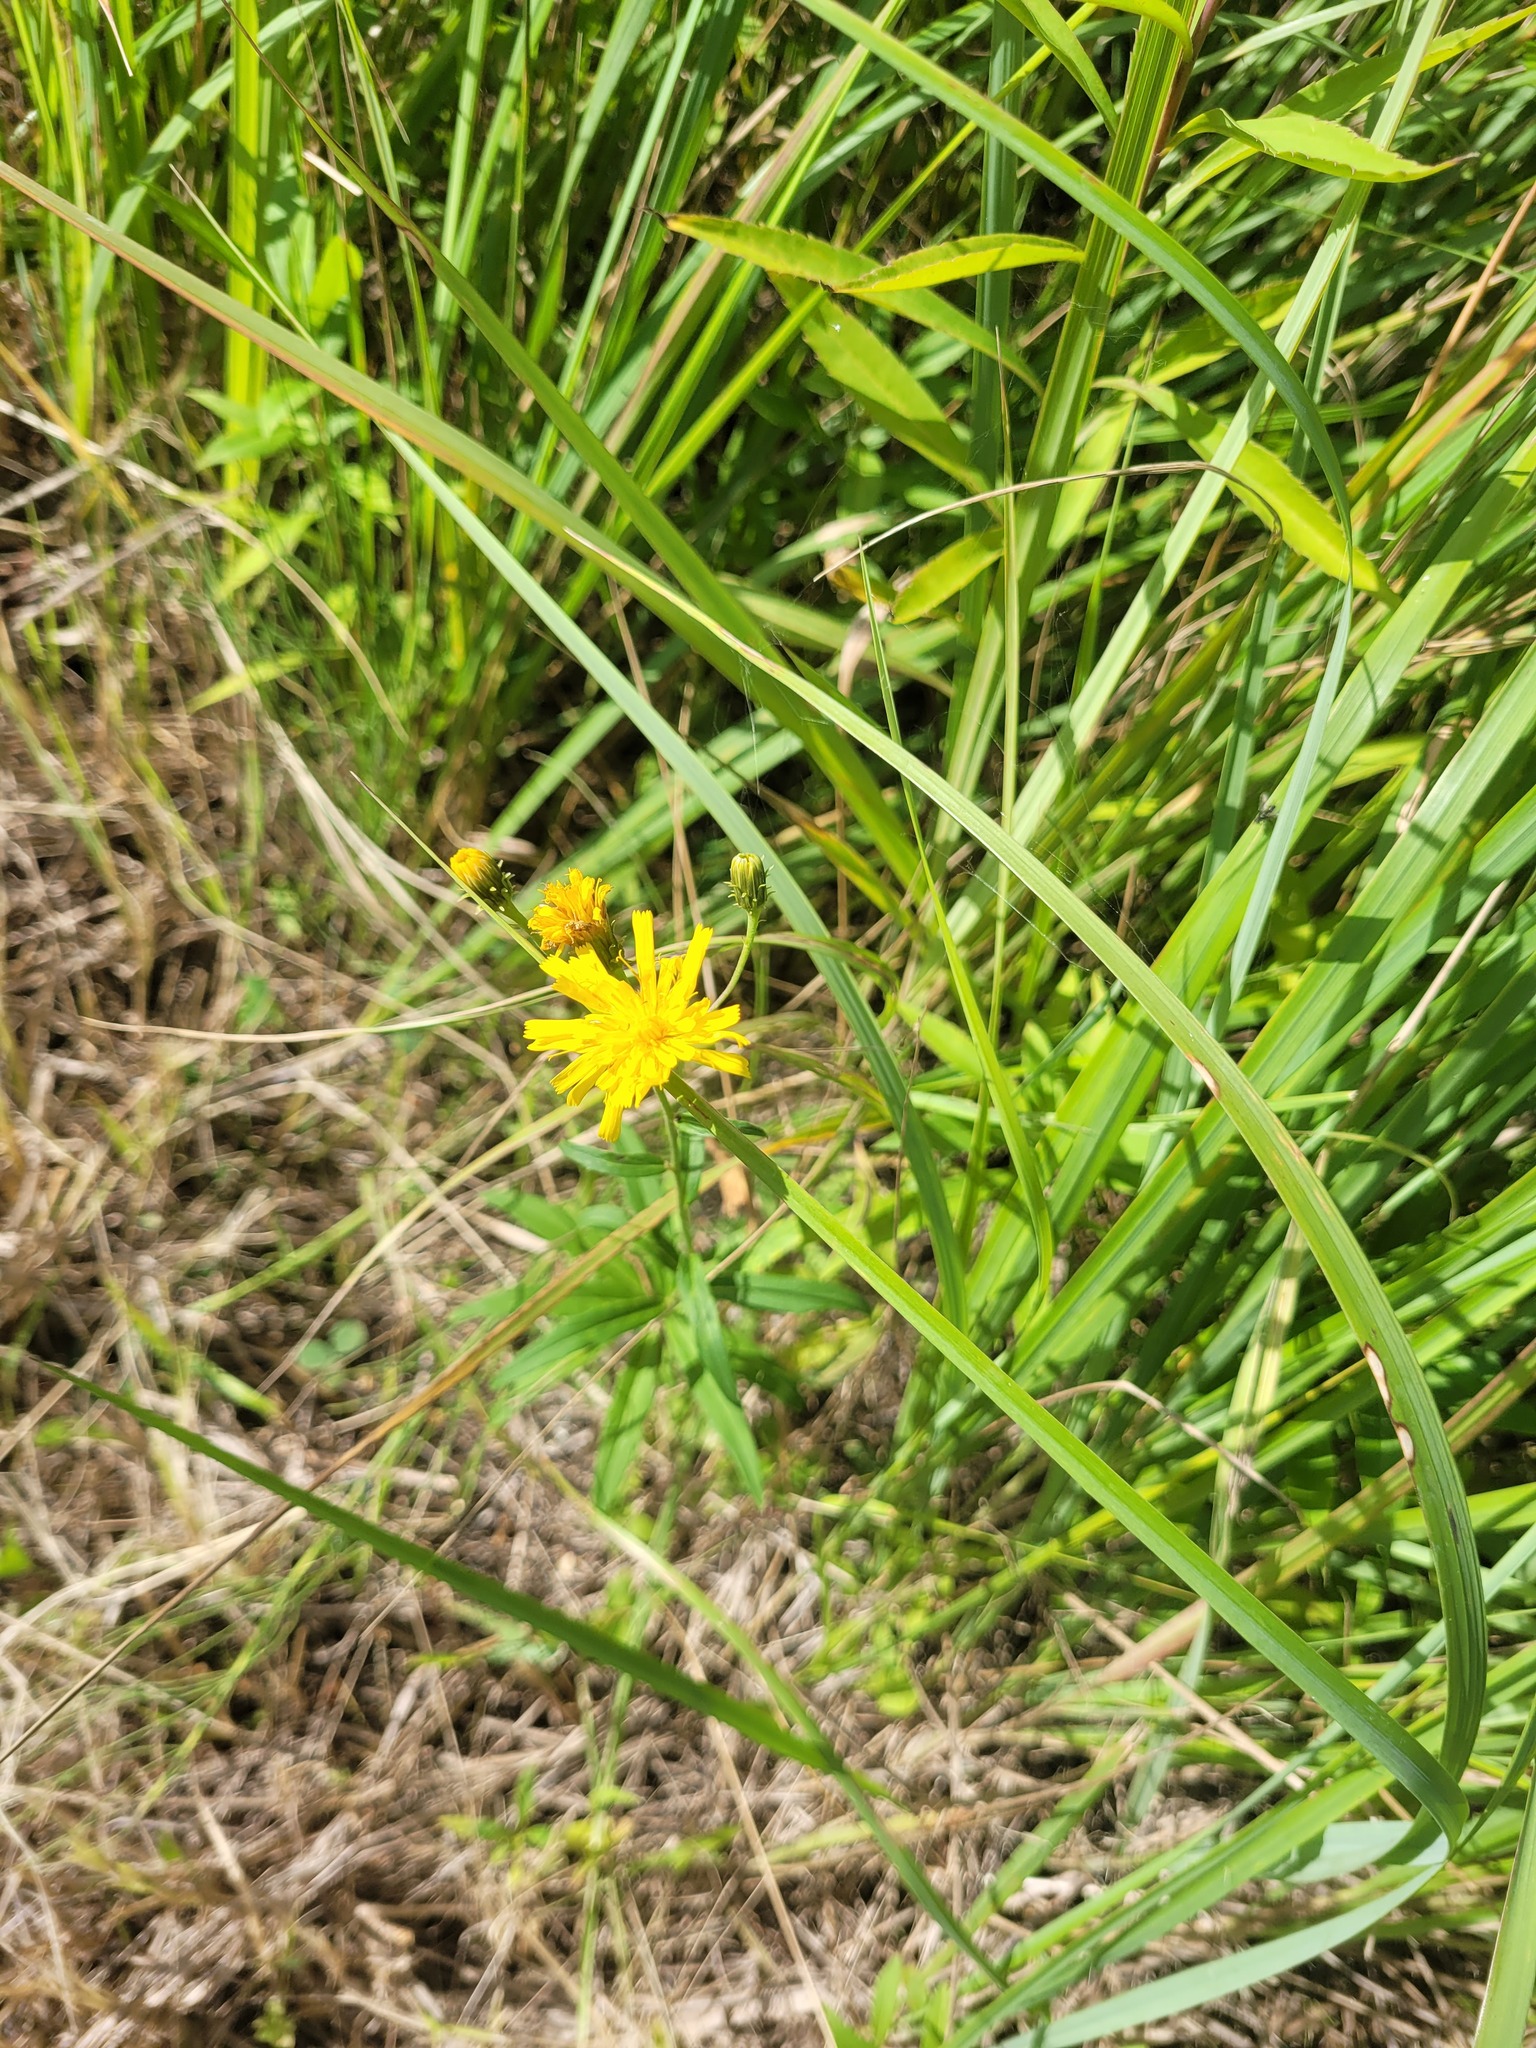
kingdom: Plantae
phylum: Tracheophyta
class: Magnoliopsida
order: Asterales
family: Asteraceae
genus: Hieracium
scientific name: Hieracium umbellatum
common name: Northern hawkweed
